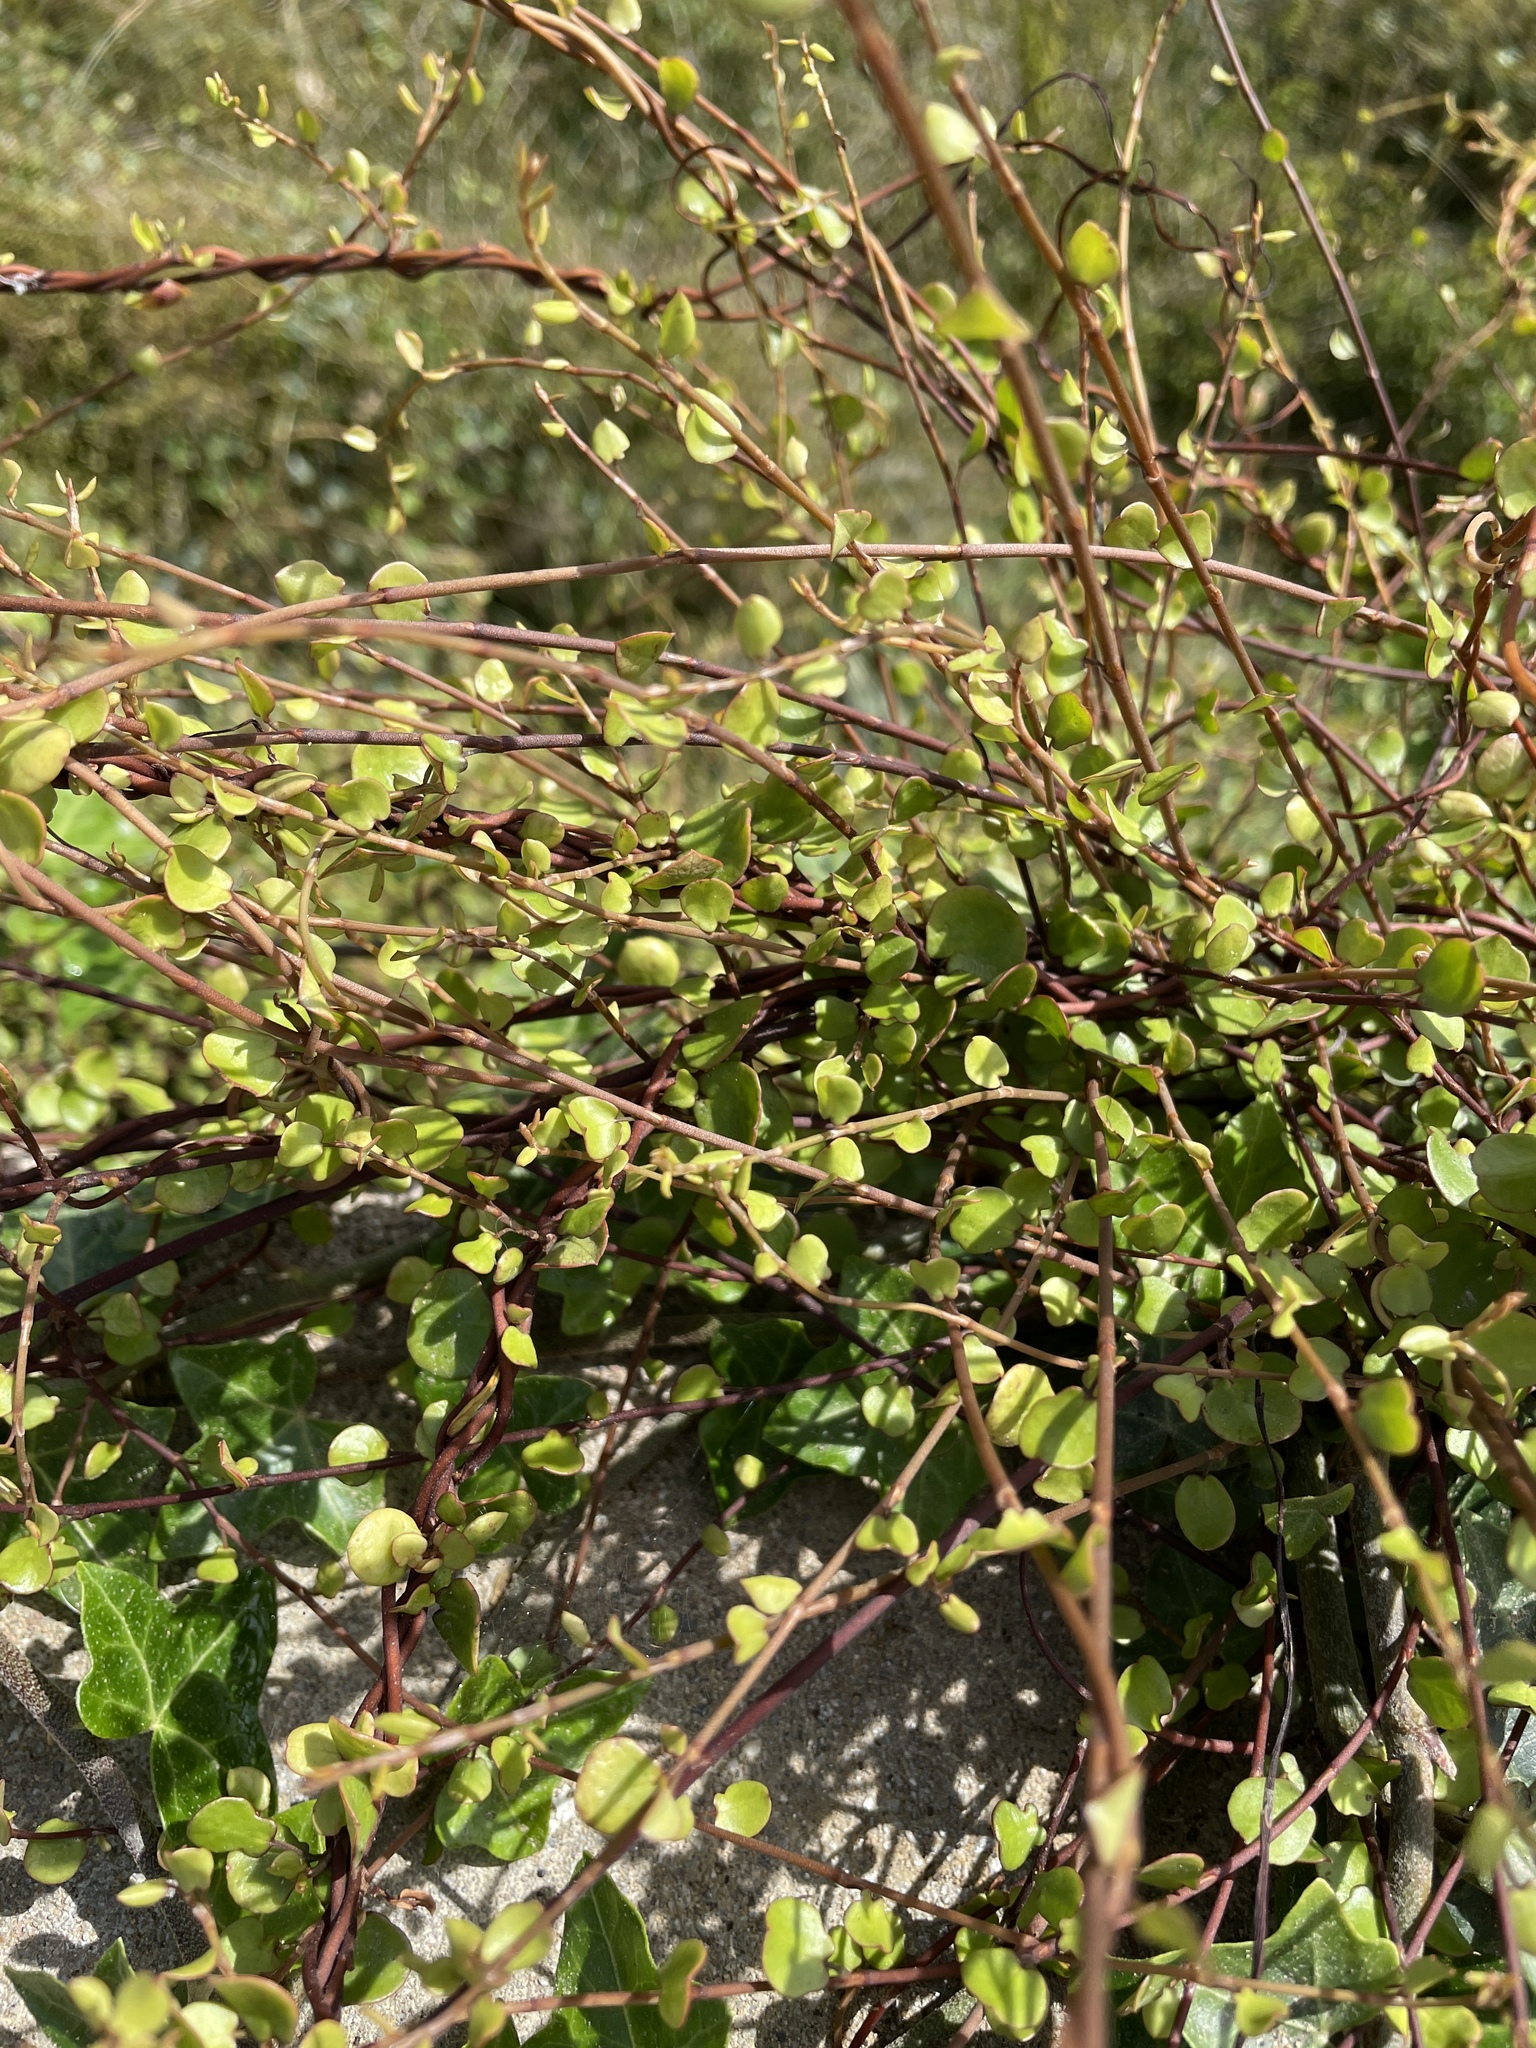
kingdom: Plantae
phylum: Tracheophyta
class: Magnoliopsida
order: Caryophyllales
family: Polygonaceae
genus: Muehlenbeckia
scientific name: Muehlenbeckia complexa
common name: Wireplant
